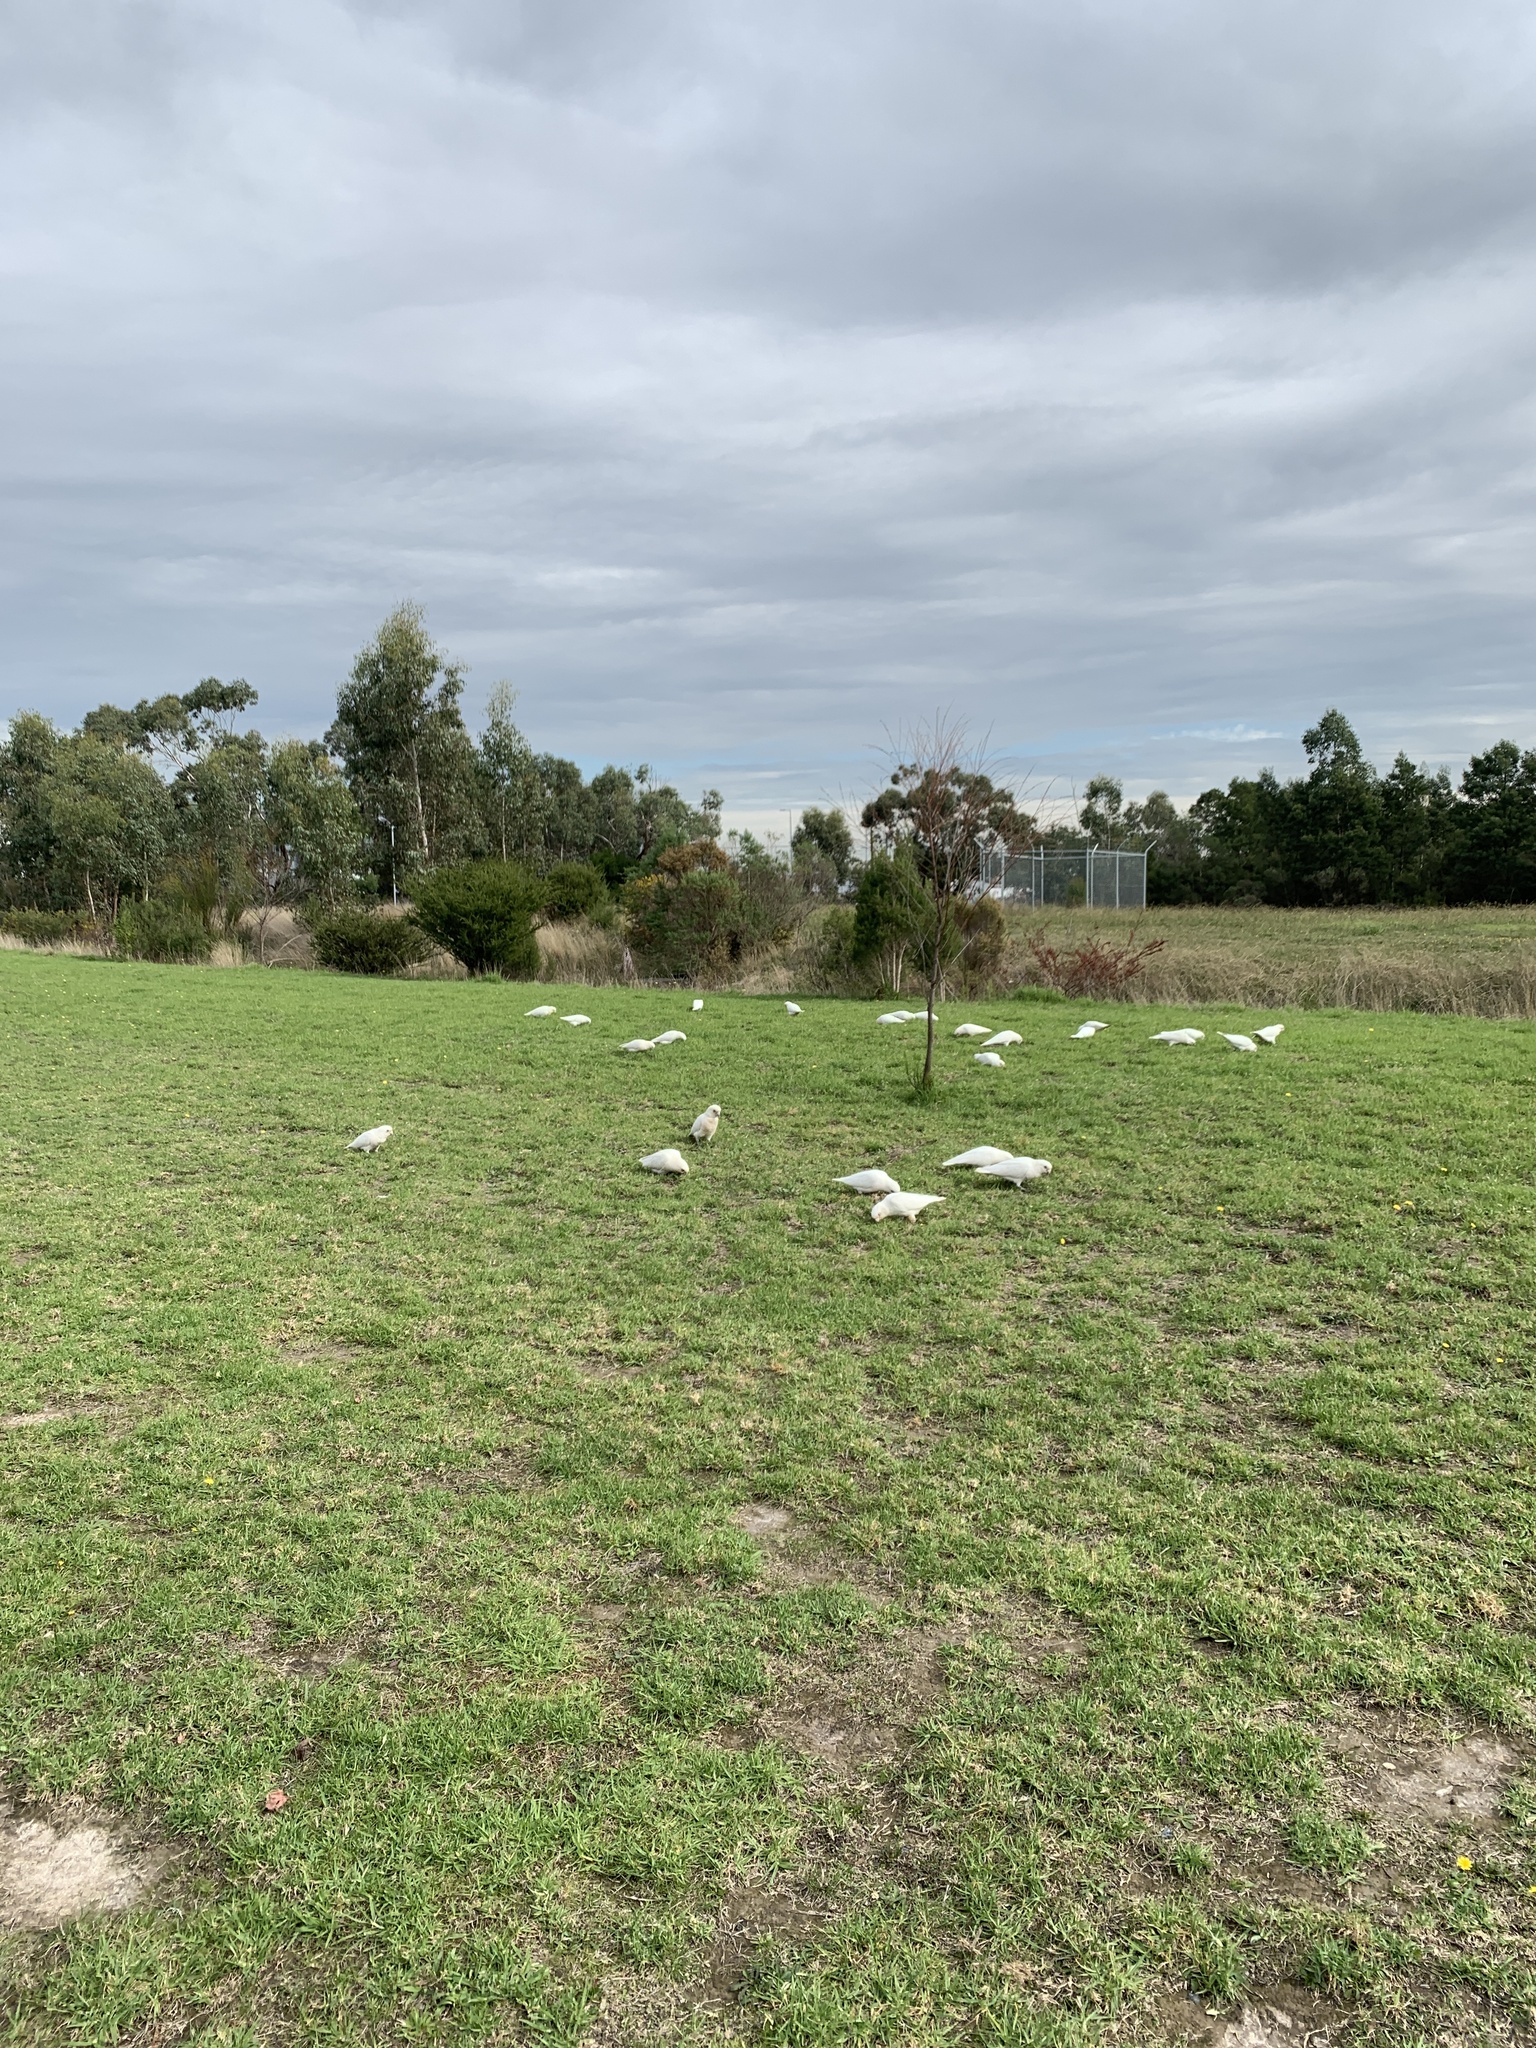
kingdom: Animalia
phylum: Chordata
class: Aves
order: Psittaciformes
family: Psittacidae
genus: Cacatua
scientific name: Cacatua sanguinea
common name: Little corella
